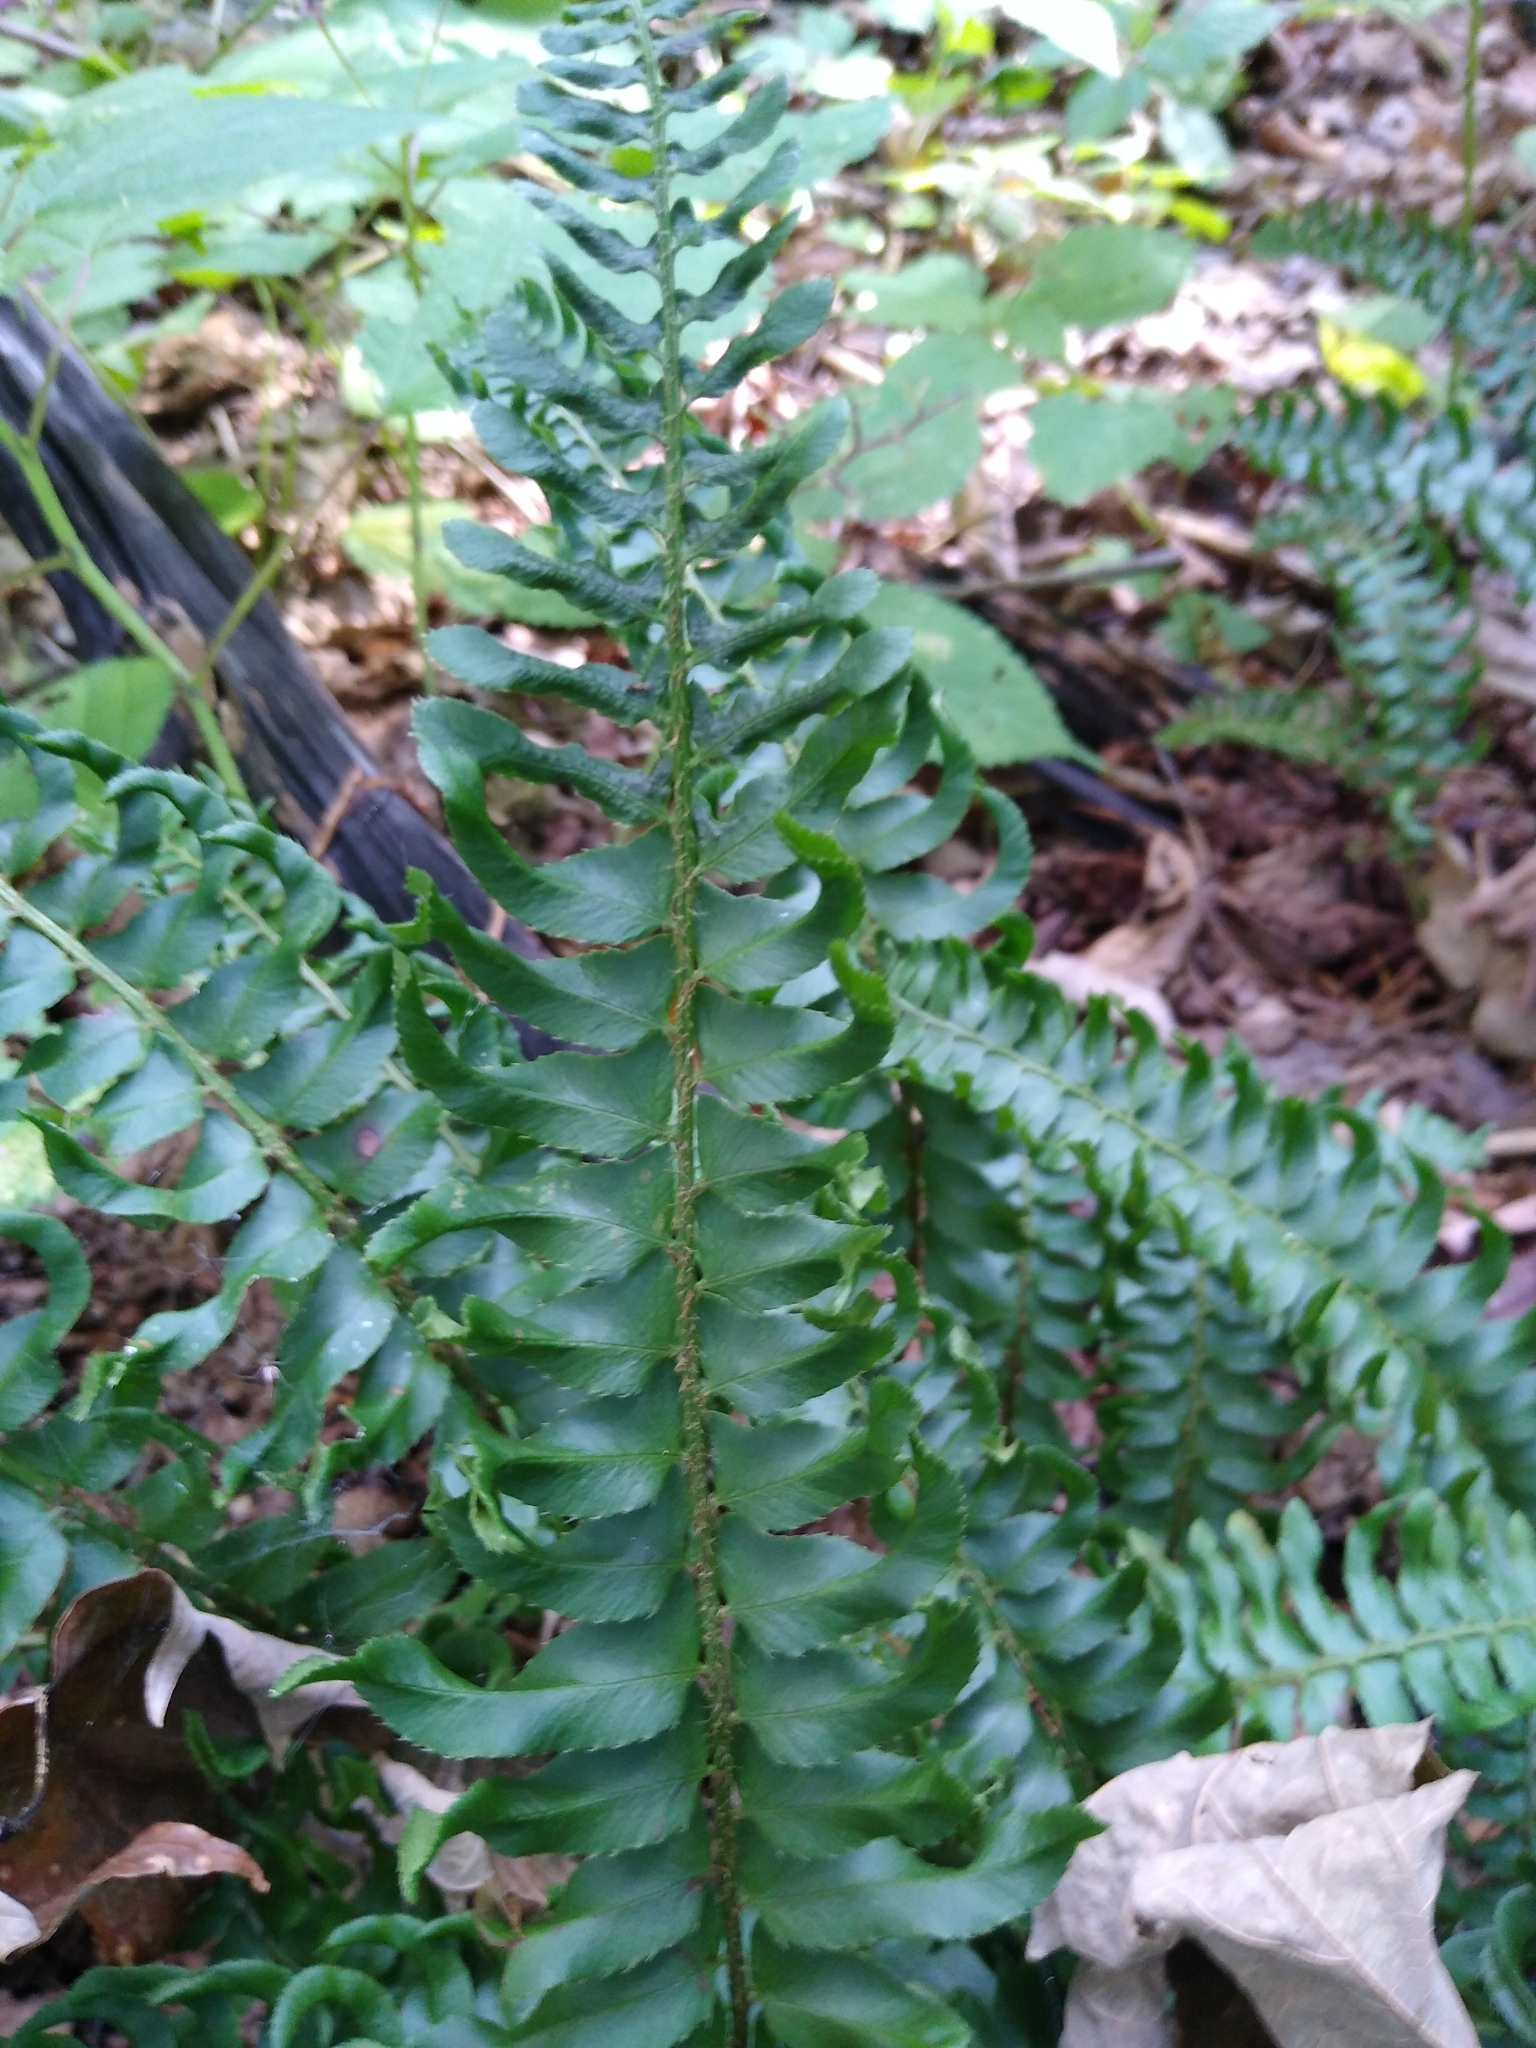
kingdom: Plantae
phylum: Tracheophyta
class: Polypodiopsida
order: Polypodiales
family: Dryopteridaceae
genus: Polystichum
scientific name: Polystichum acrostichoides
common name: Christmas fern
